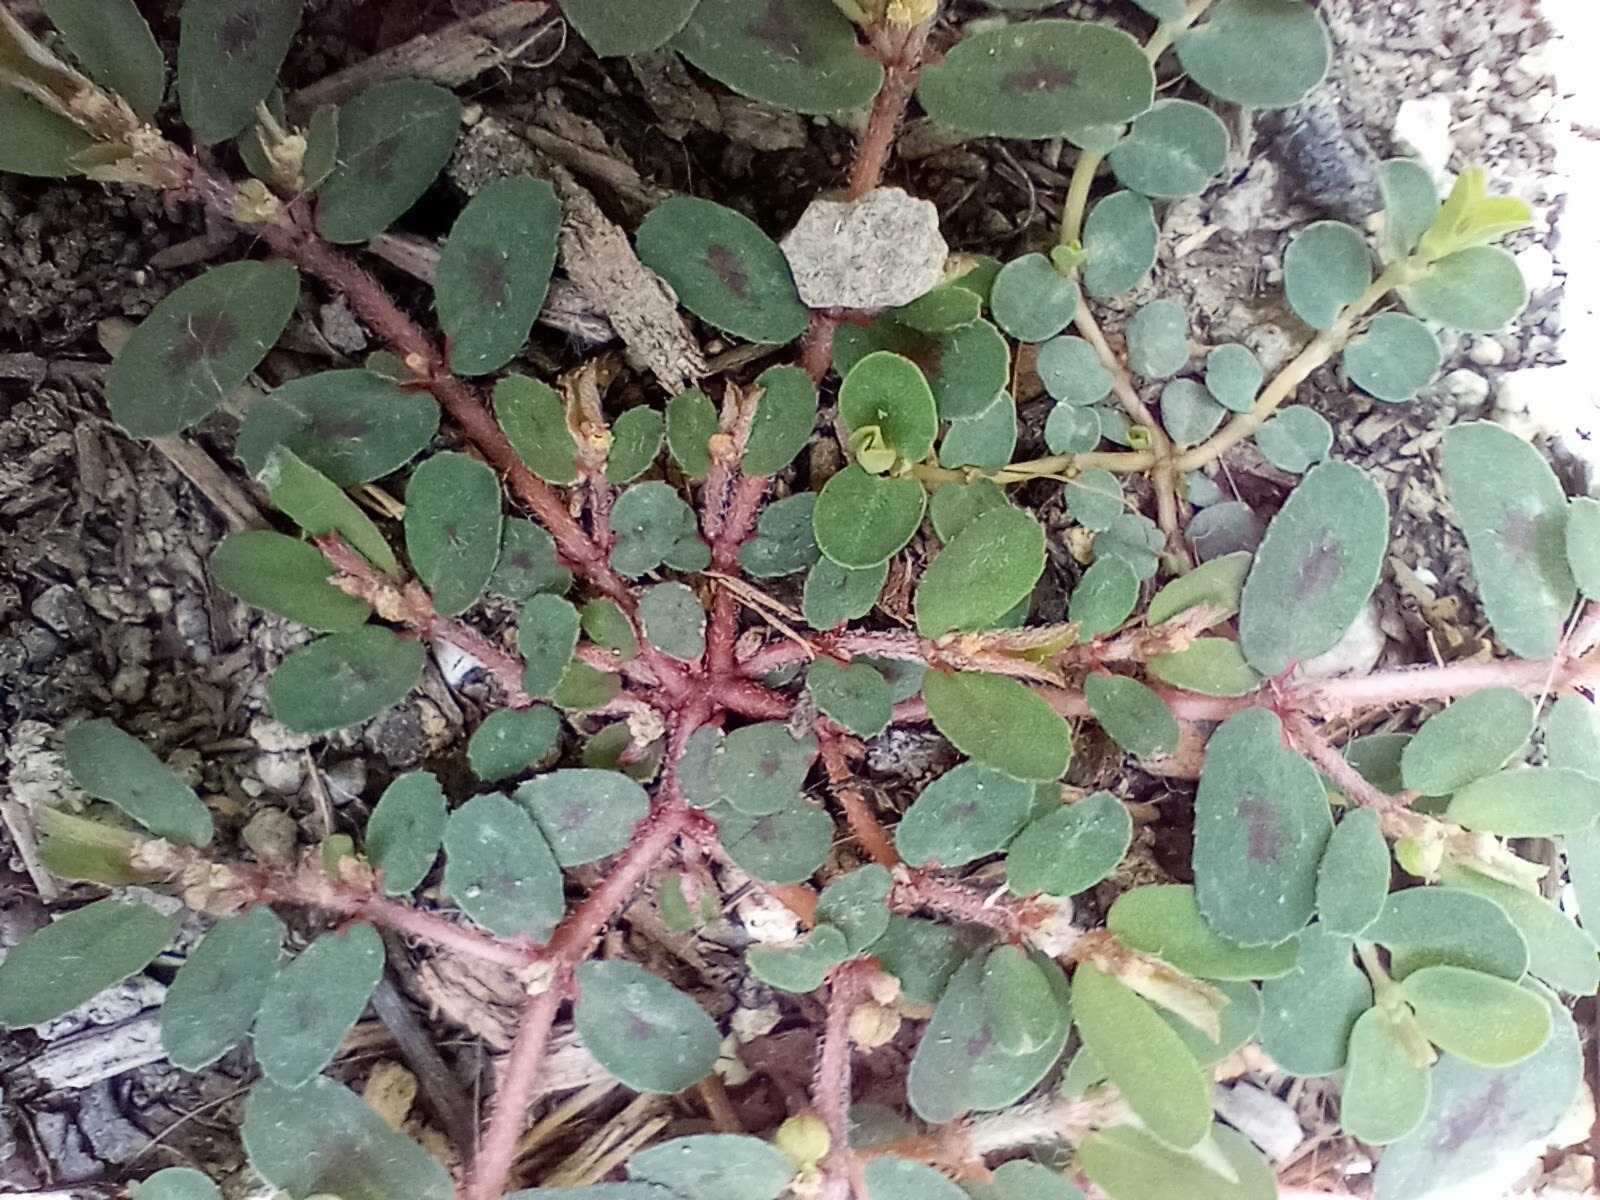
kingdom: Plantae
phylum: Tracheophyta
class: Magnoliopsida
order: Malpighiales
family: Euphorbiaceae
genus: Euphorbia
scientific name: Euphorbia maculata
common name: Spotted spurge
